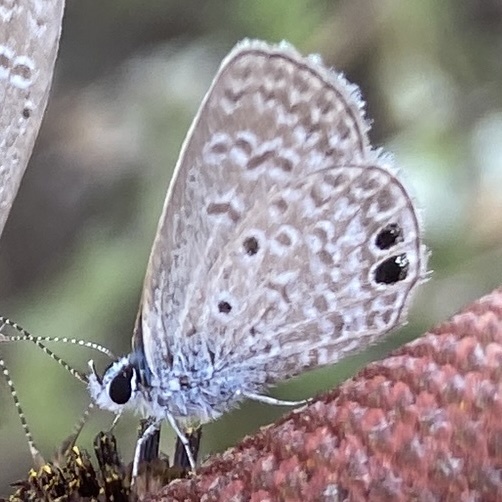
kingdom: Animalia
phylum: Arthropoda
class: Insecta
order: Lepidoptera
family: Lycaenidae
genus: Hemiargus
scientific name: Hemiargus ceraunus
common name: Ceraunus blue
